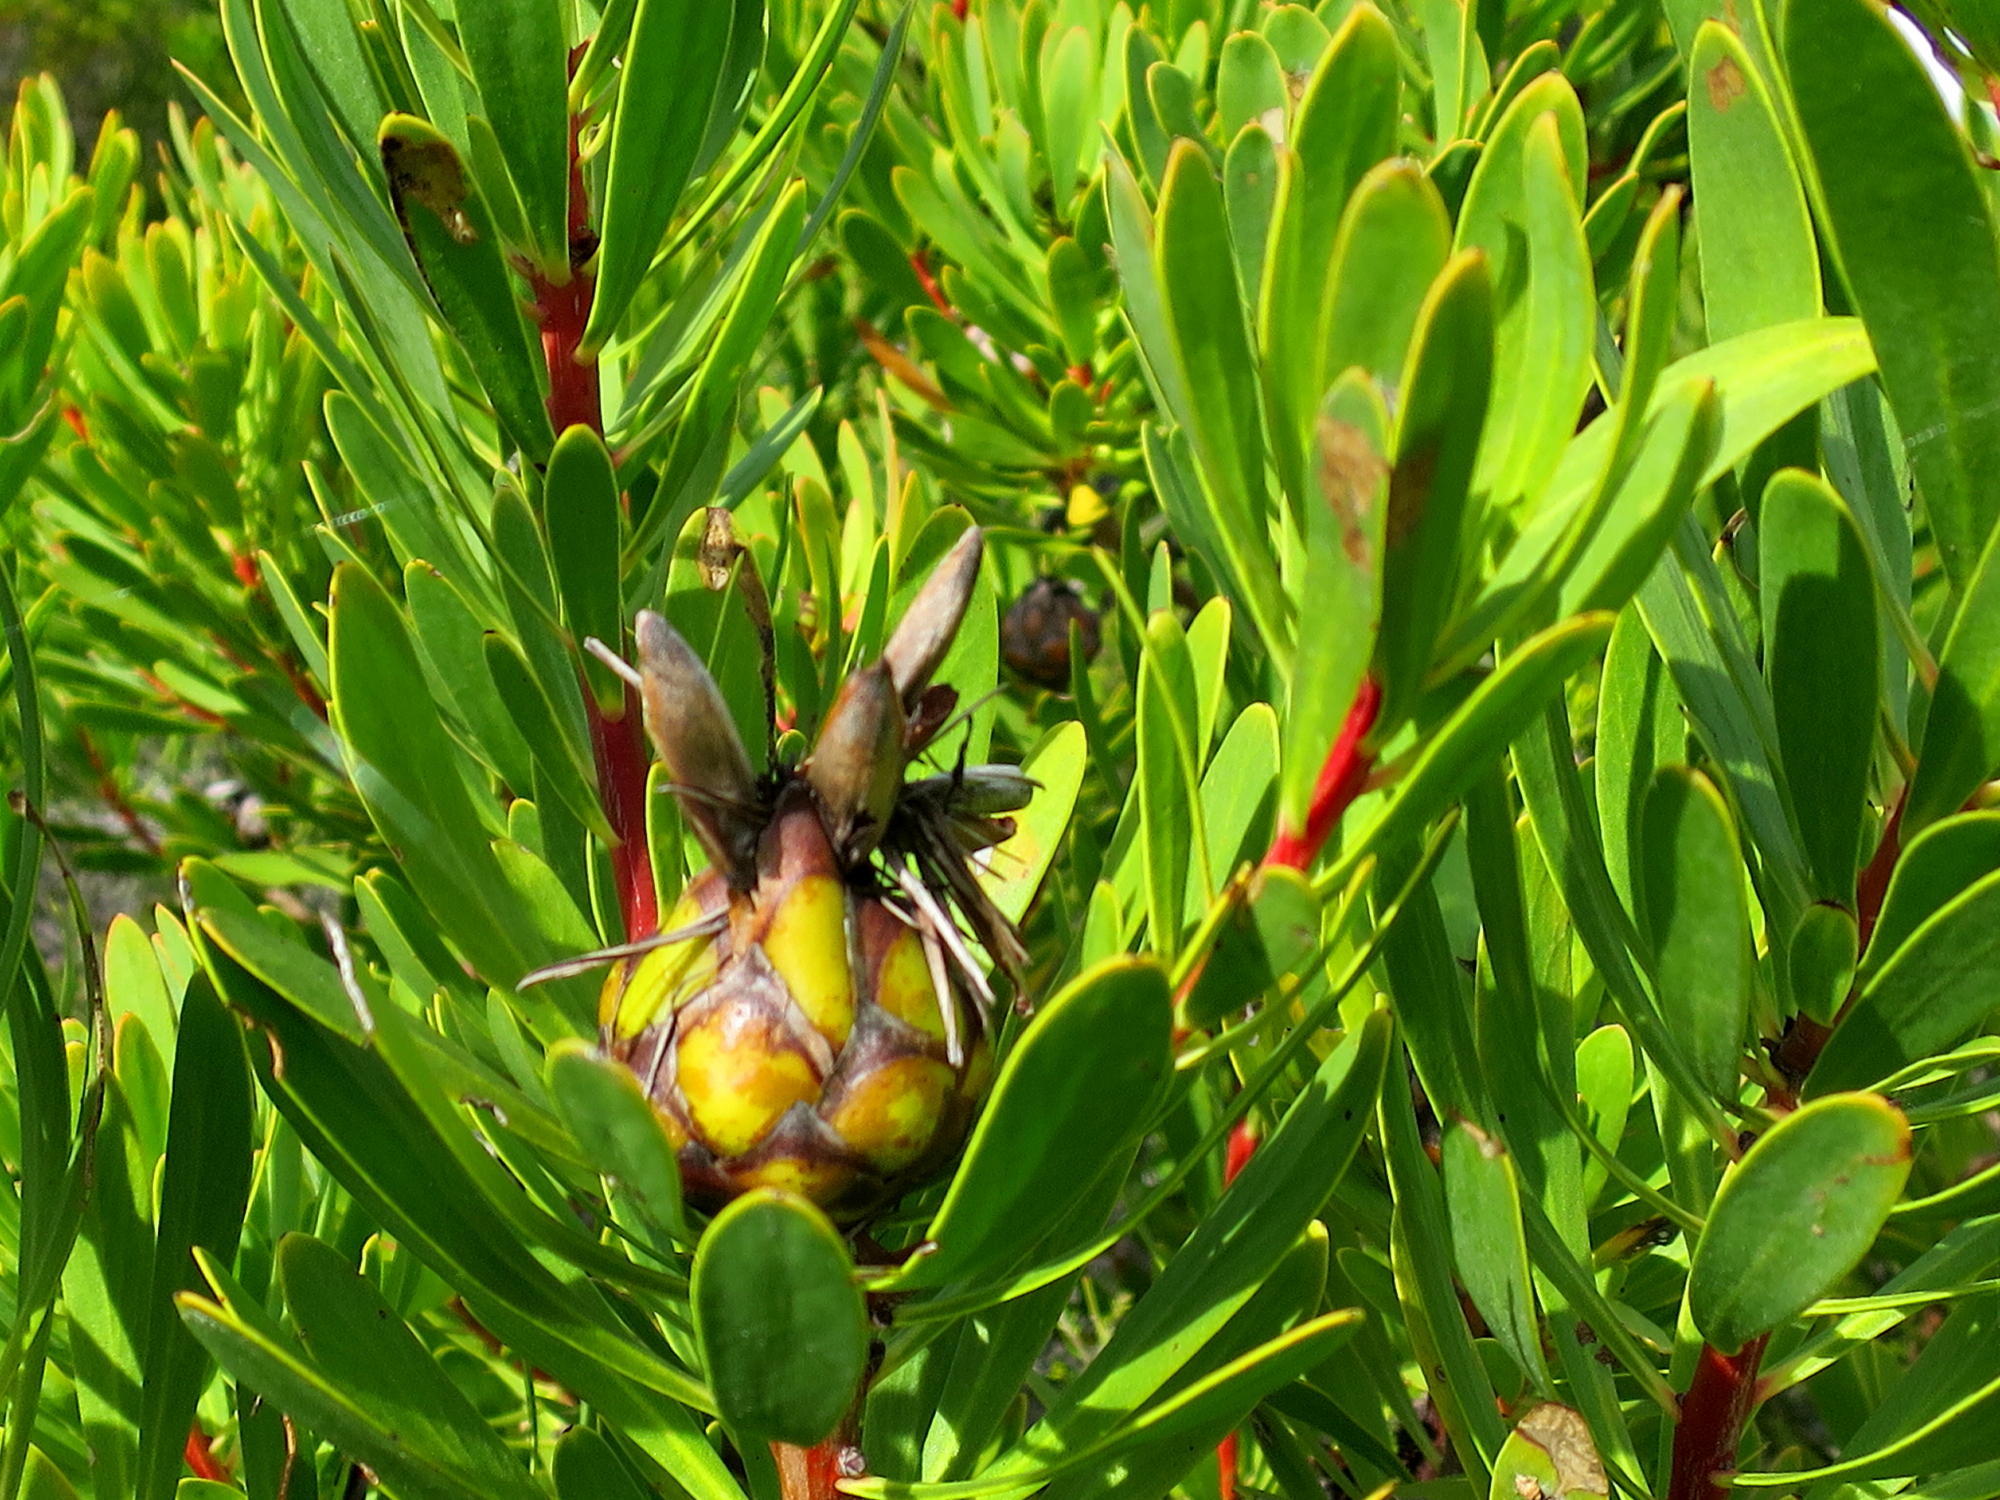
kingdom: Plantae
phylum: Tracheophyta
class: Magnoliopsida
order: Proteales
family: Proteaceae
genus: Protea
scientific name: Protea lanceolata
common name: Lance-leaved protea
